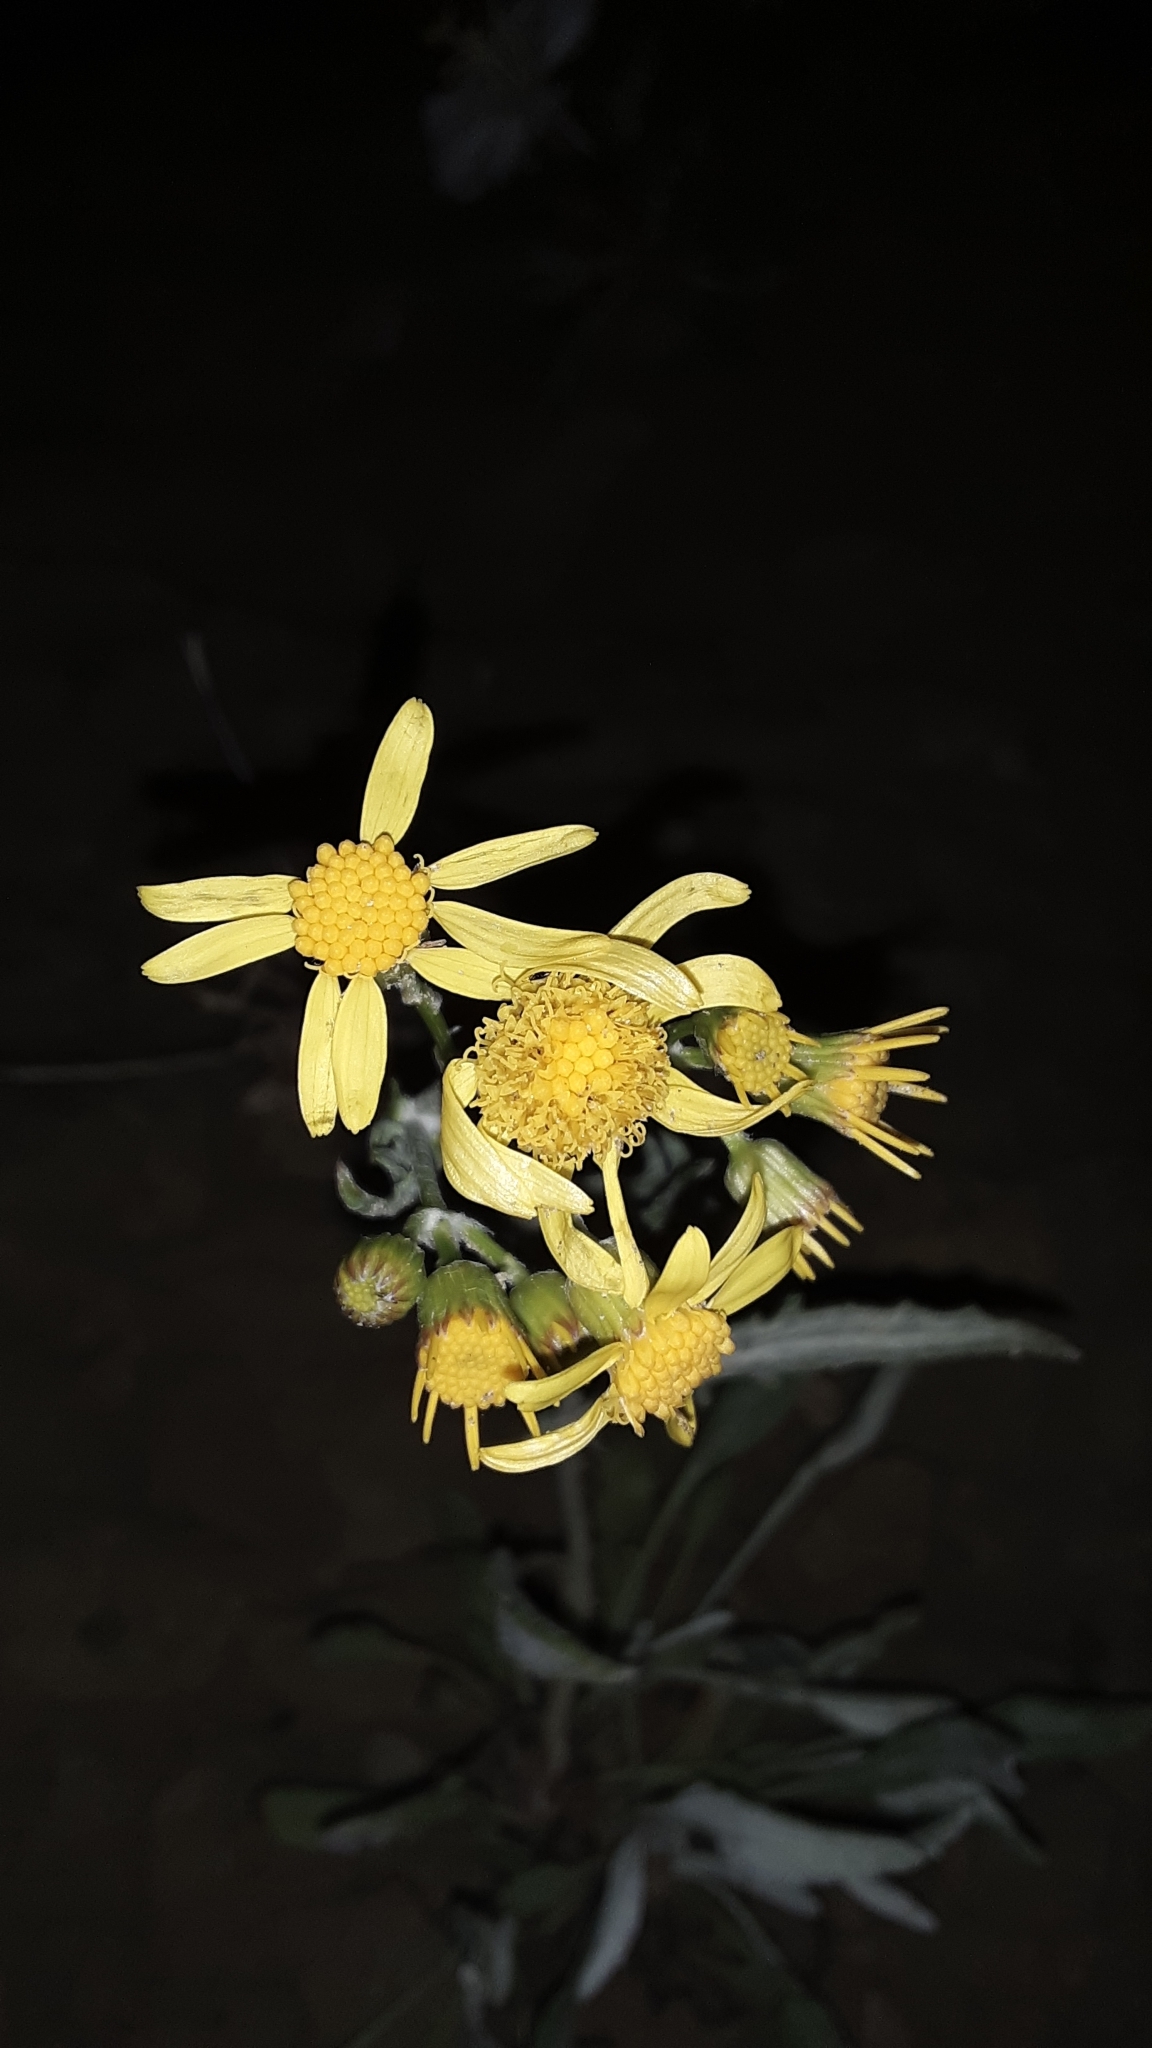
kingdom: Plantae
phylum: Tracheophyta
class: Magnoliopsida
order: Asterales
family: Asteraceae
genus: Packera
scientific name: Packera cana
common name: Woolly groundsel
